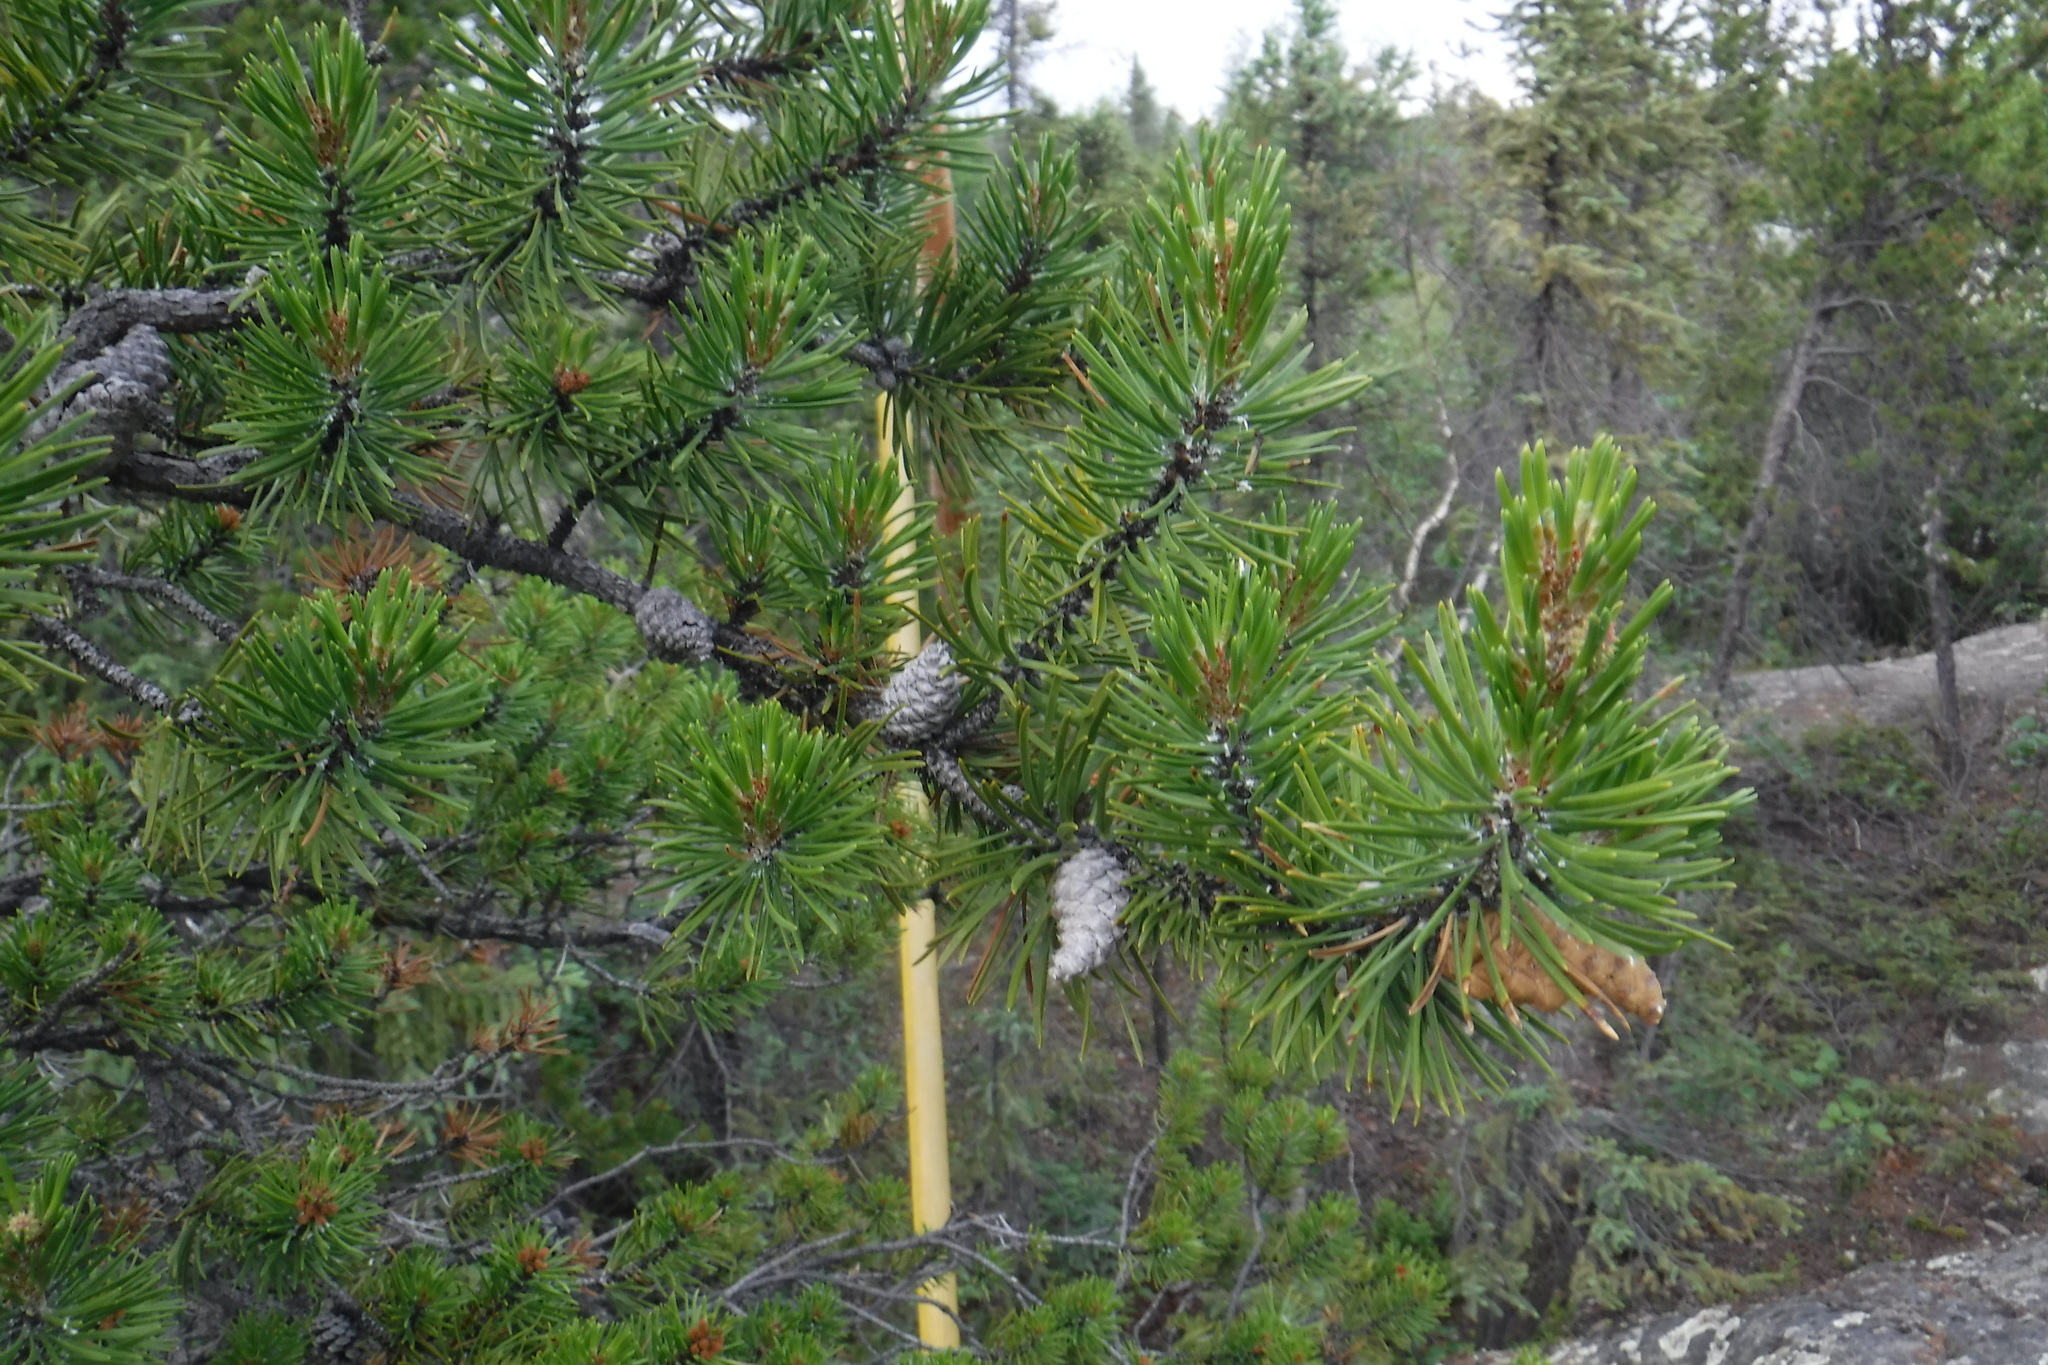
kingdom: Plantae
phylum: Tracheophyta
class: Pinopsida
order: Pinales
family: Pinaceae
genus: Pinus
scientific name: Pinus banksiana
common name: Jack pine
